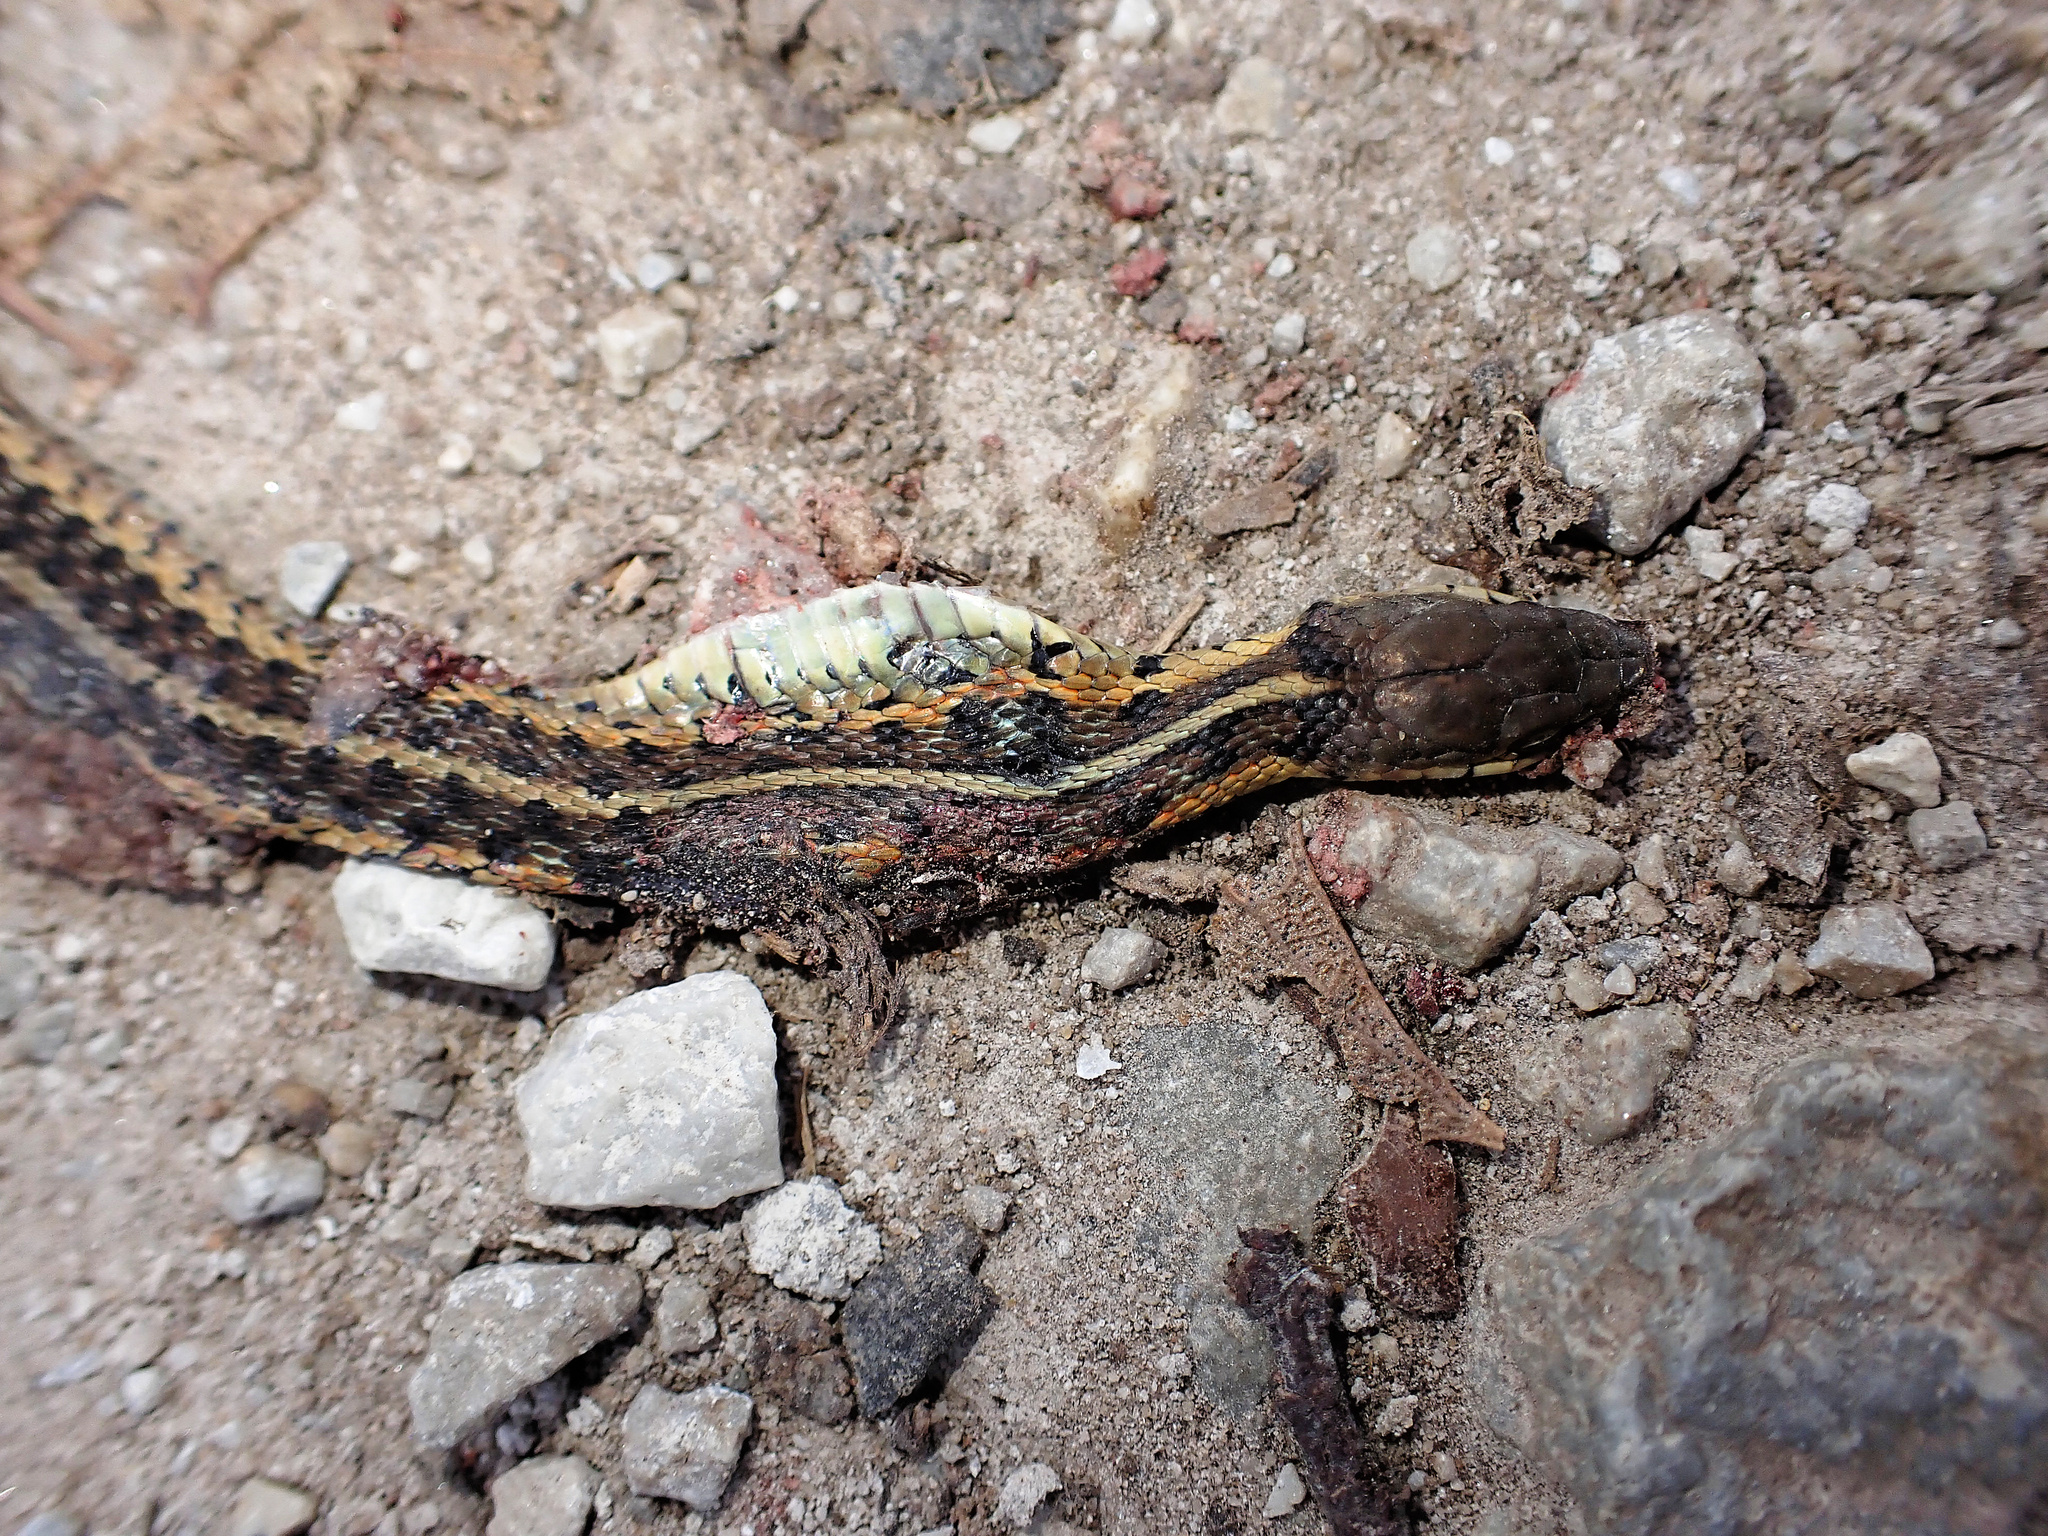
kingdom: Animalia
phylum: Chordata
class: Squamata
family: Colubridae
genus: Thamnophis
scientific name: Thamnophis sirtalis
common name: Common garter snake
